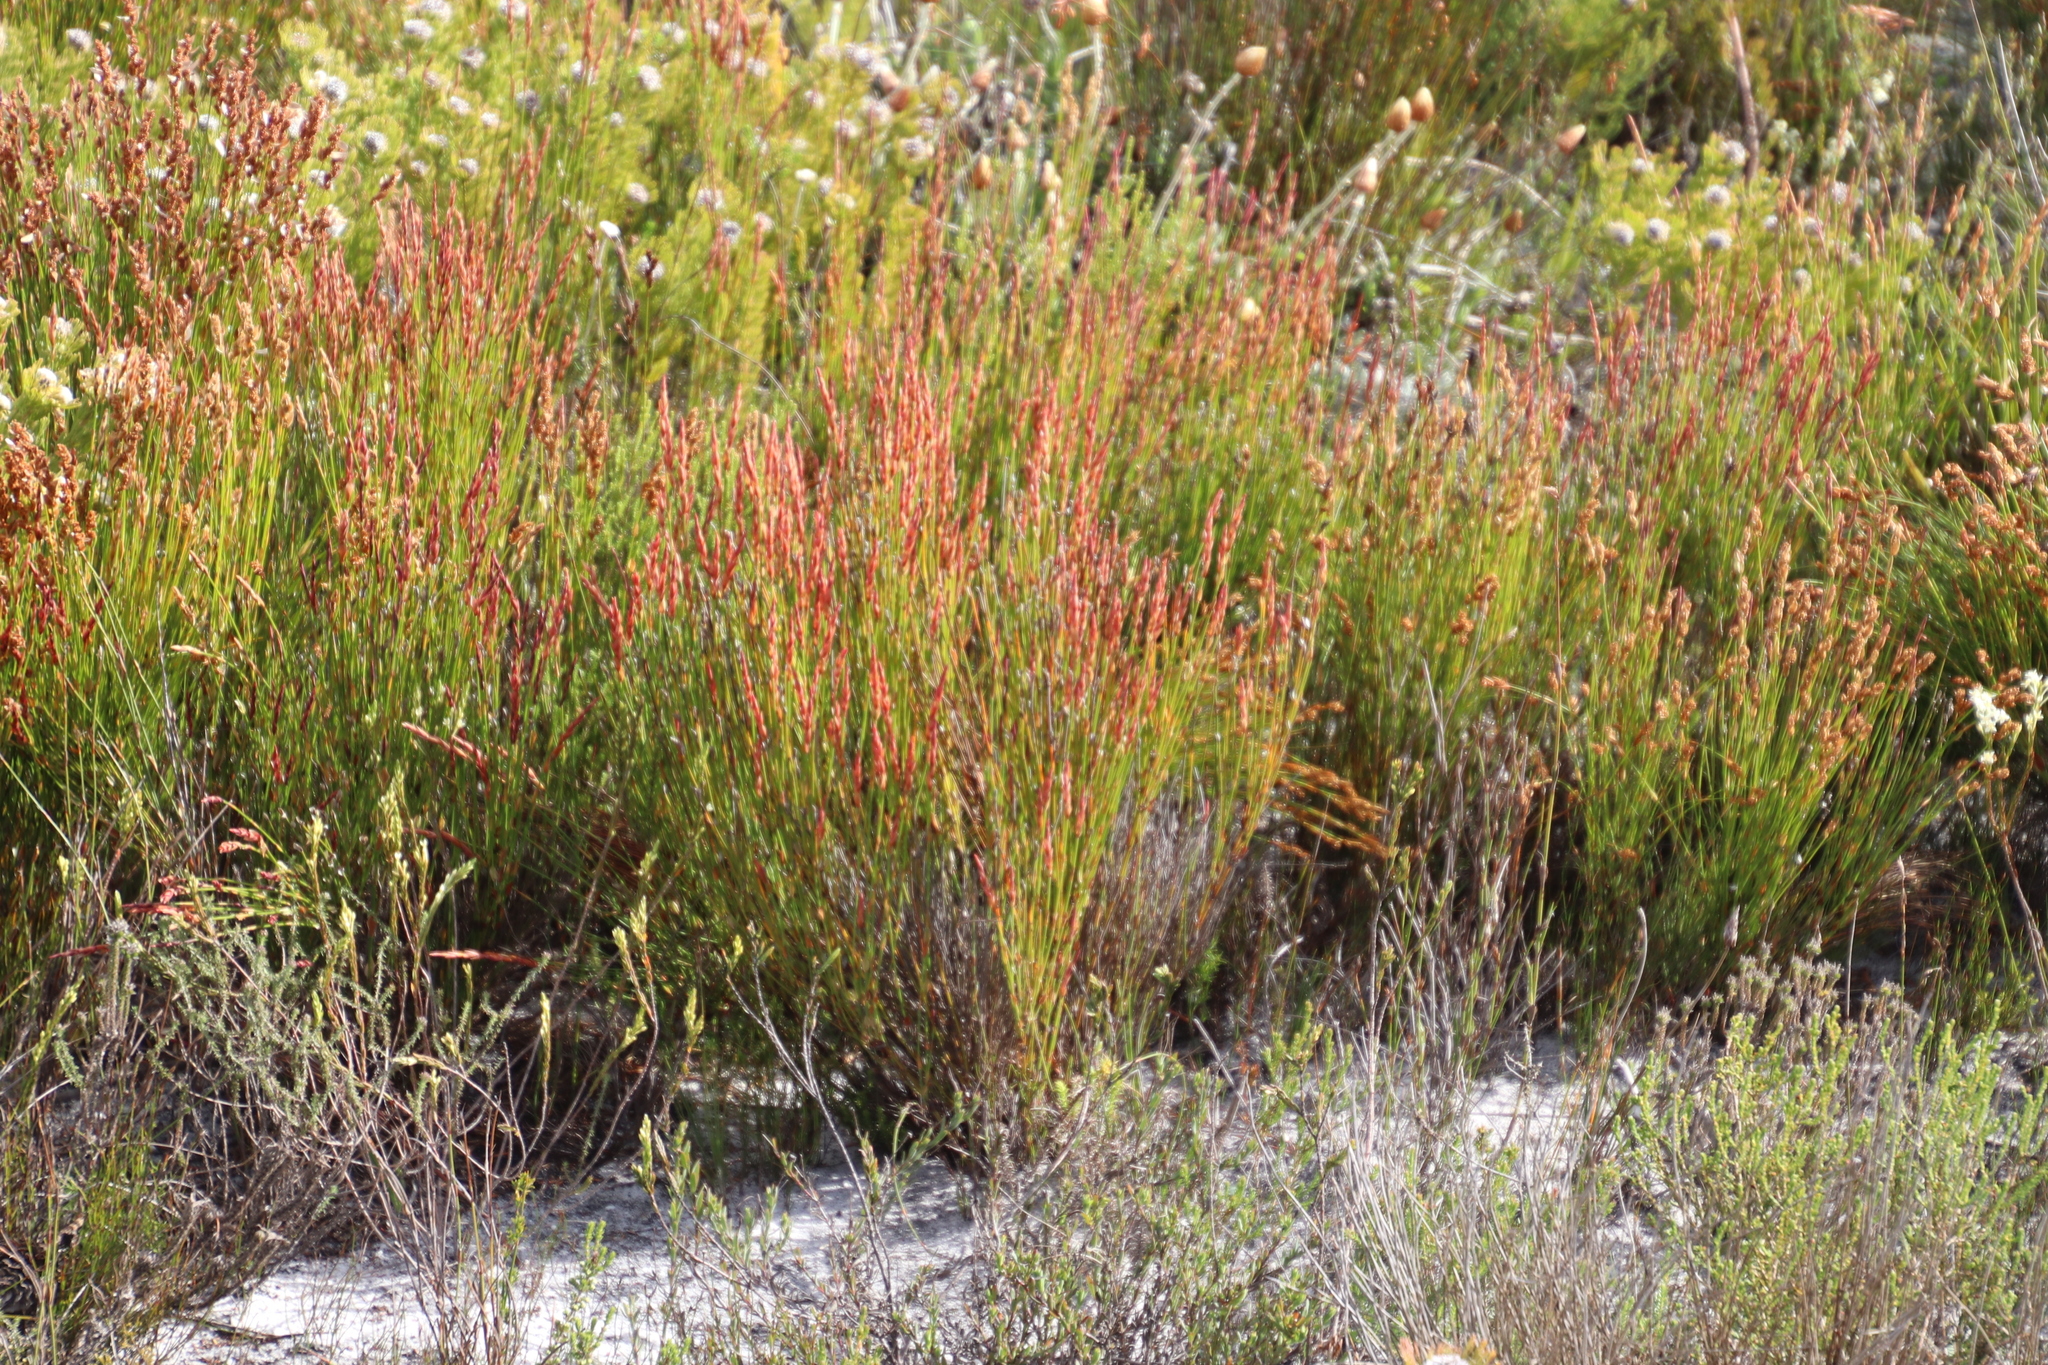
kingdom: Plantae
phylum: Tracheophyta
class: Liliopsida
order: Poales
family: Restionaceae
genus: Elegia
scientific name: Elegia stipularis
